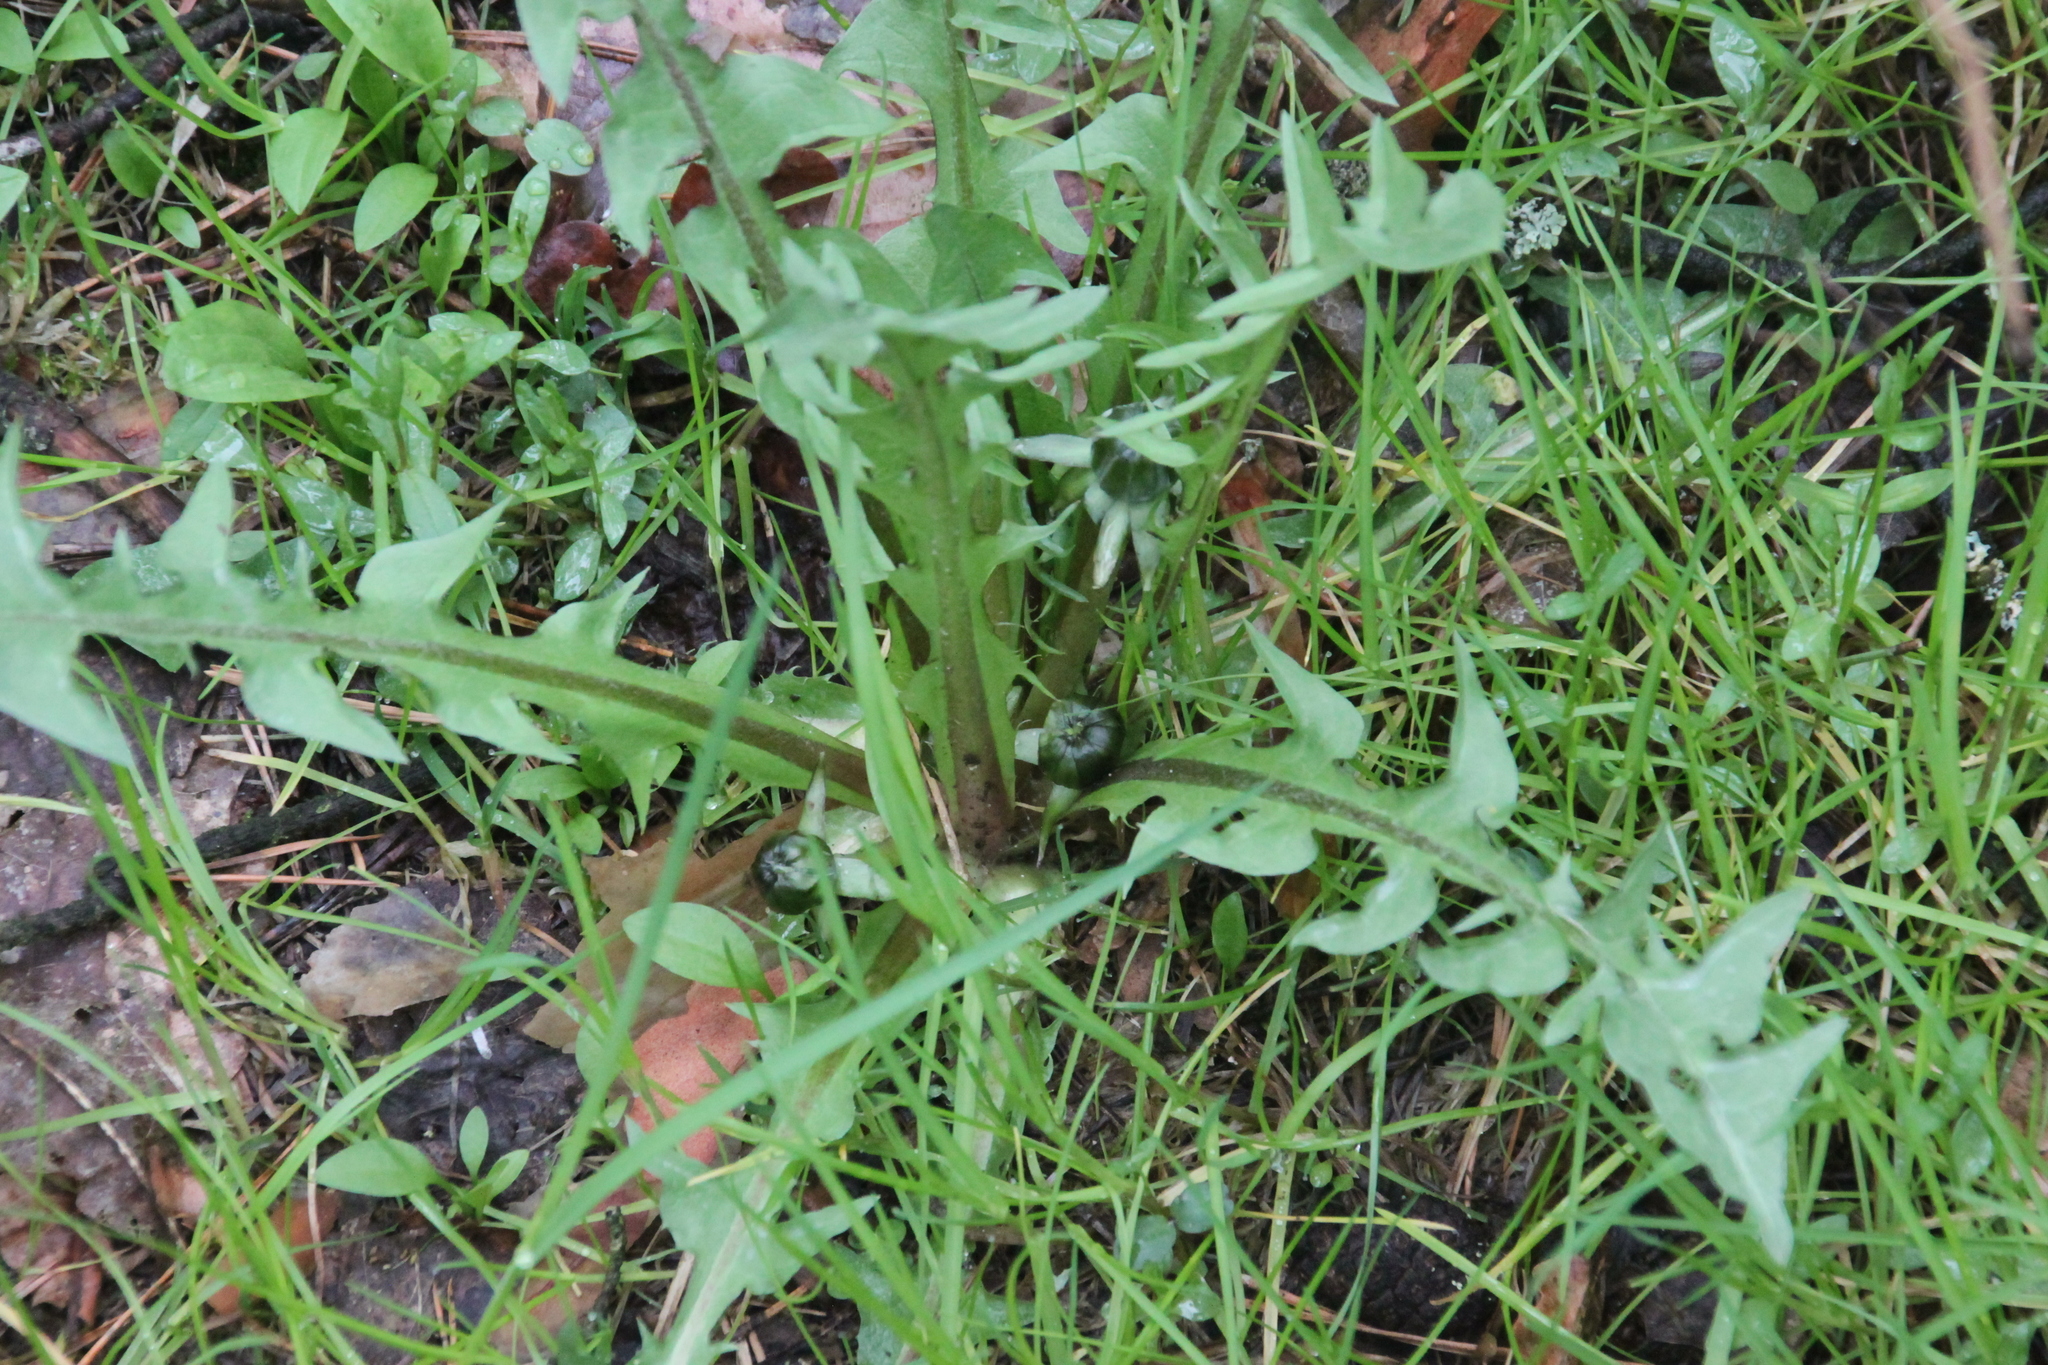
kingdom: Plantae
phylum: Tracheophyta
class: Magnoliopsida
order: Asterales
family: Asteraceae
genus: Taraxacum
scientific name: Taraxacum officinale
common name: Common dandelion
